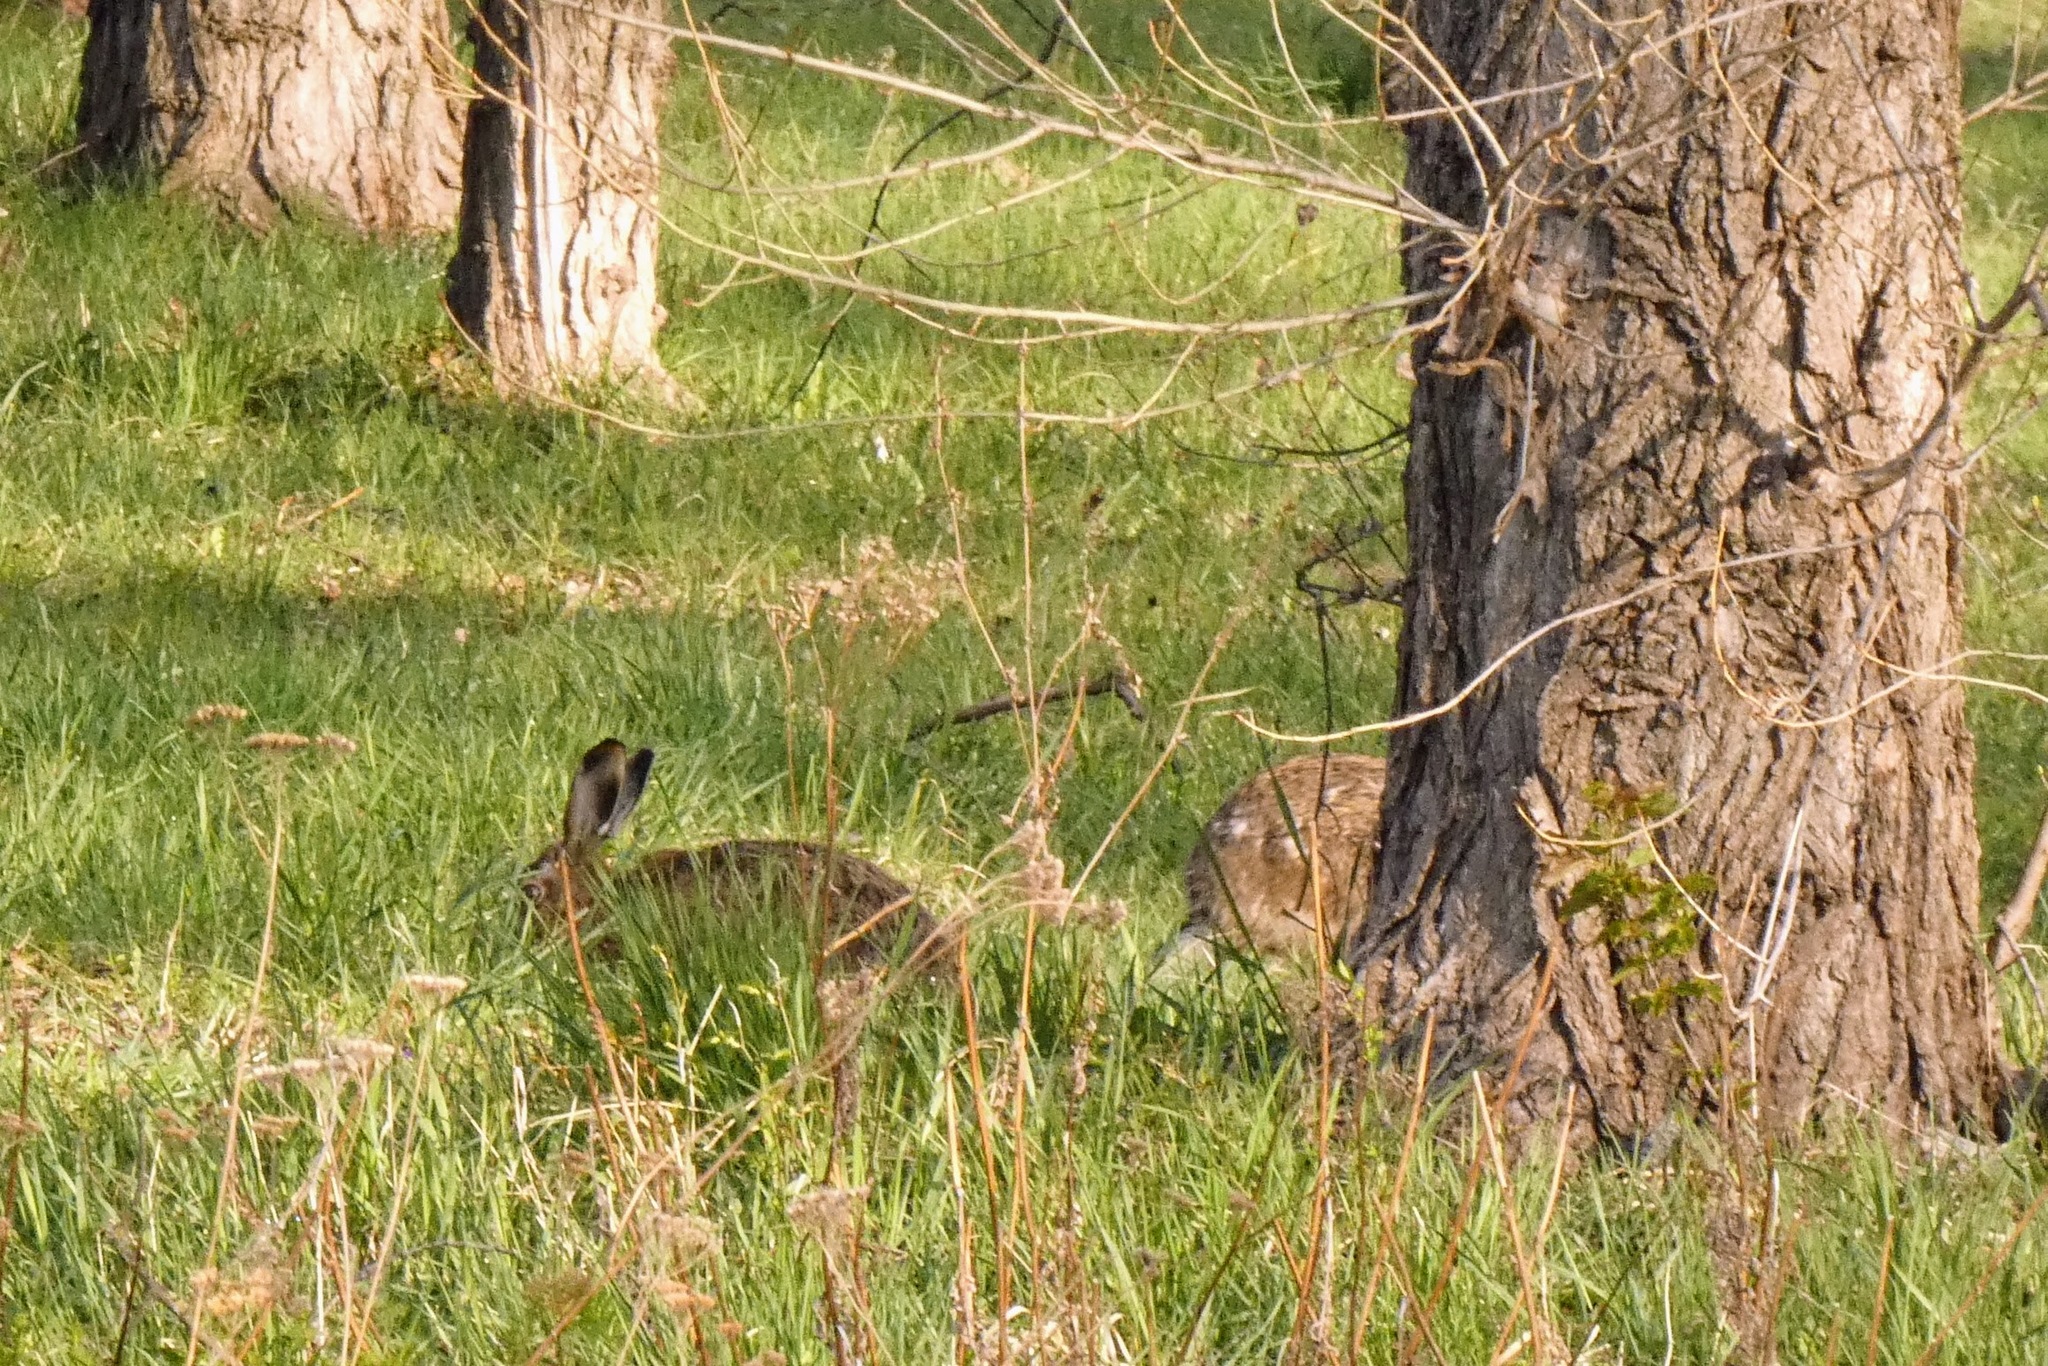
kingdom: Animalia
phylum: Chordata
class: Mammalia
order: Lagomorpha
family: Leporidae
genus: Lepus
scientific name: Lepus europaeus
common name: European hare
